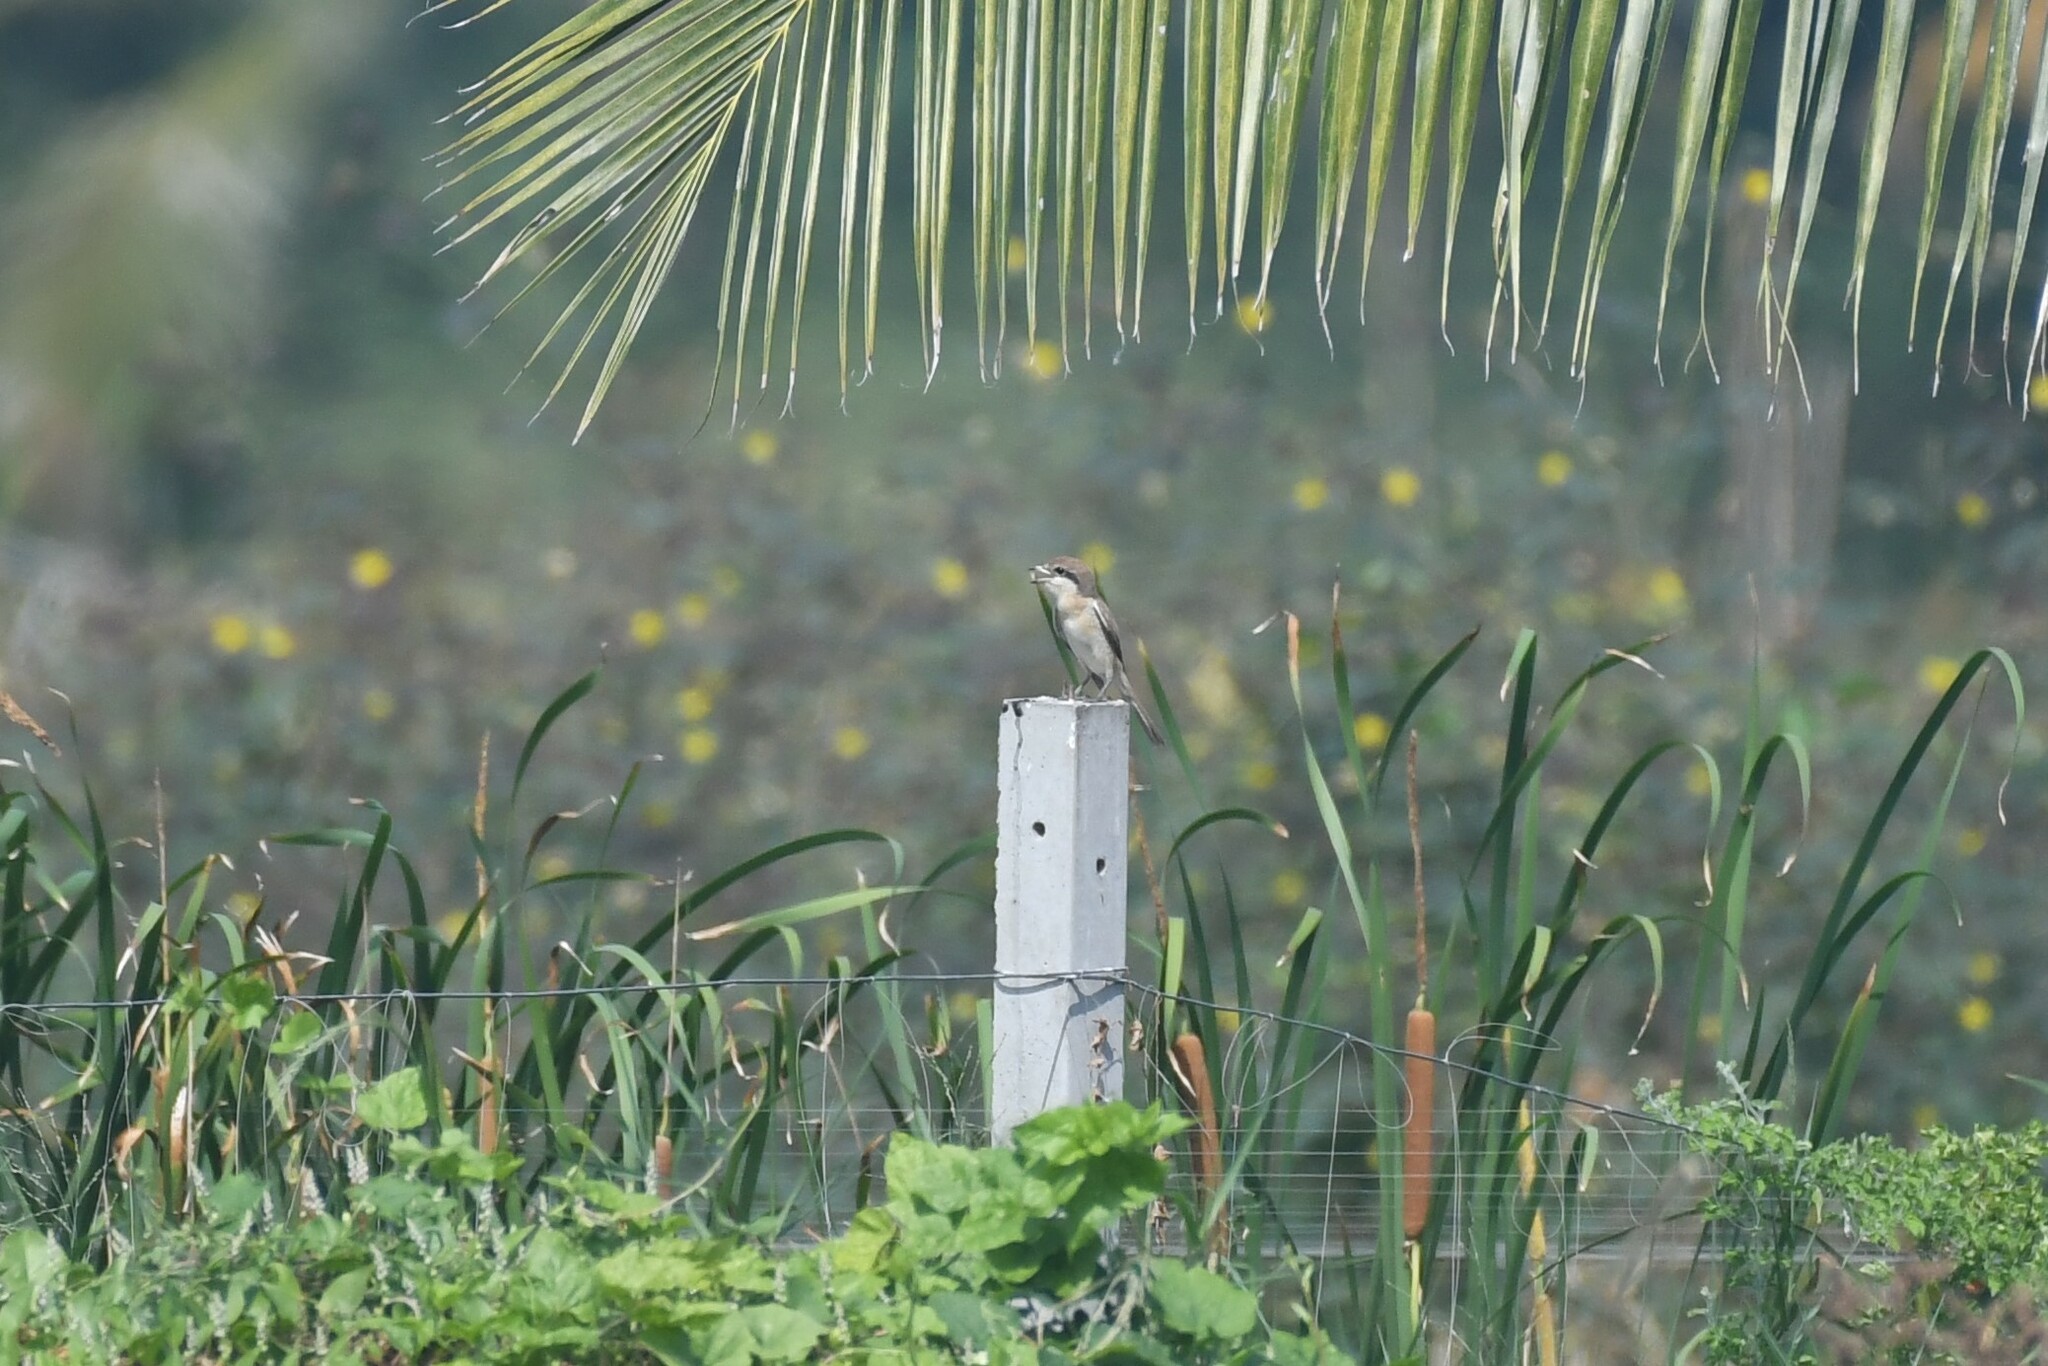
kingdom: Animalia
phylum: Chordata
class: Aves
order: Passeriformes
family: Laniidae
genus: Lanius
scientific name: Lanius cristatus
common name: Brown shrike
